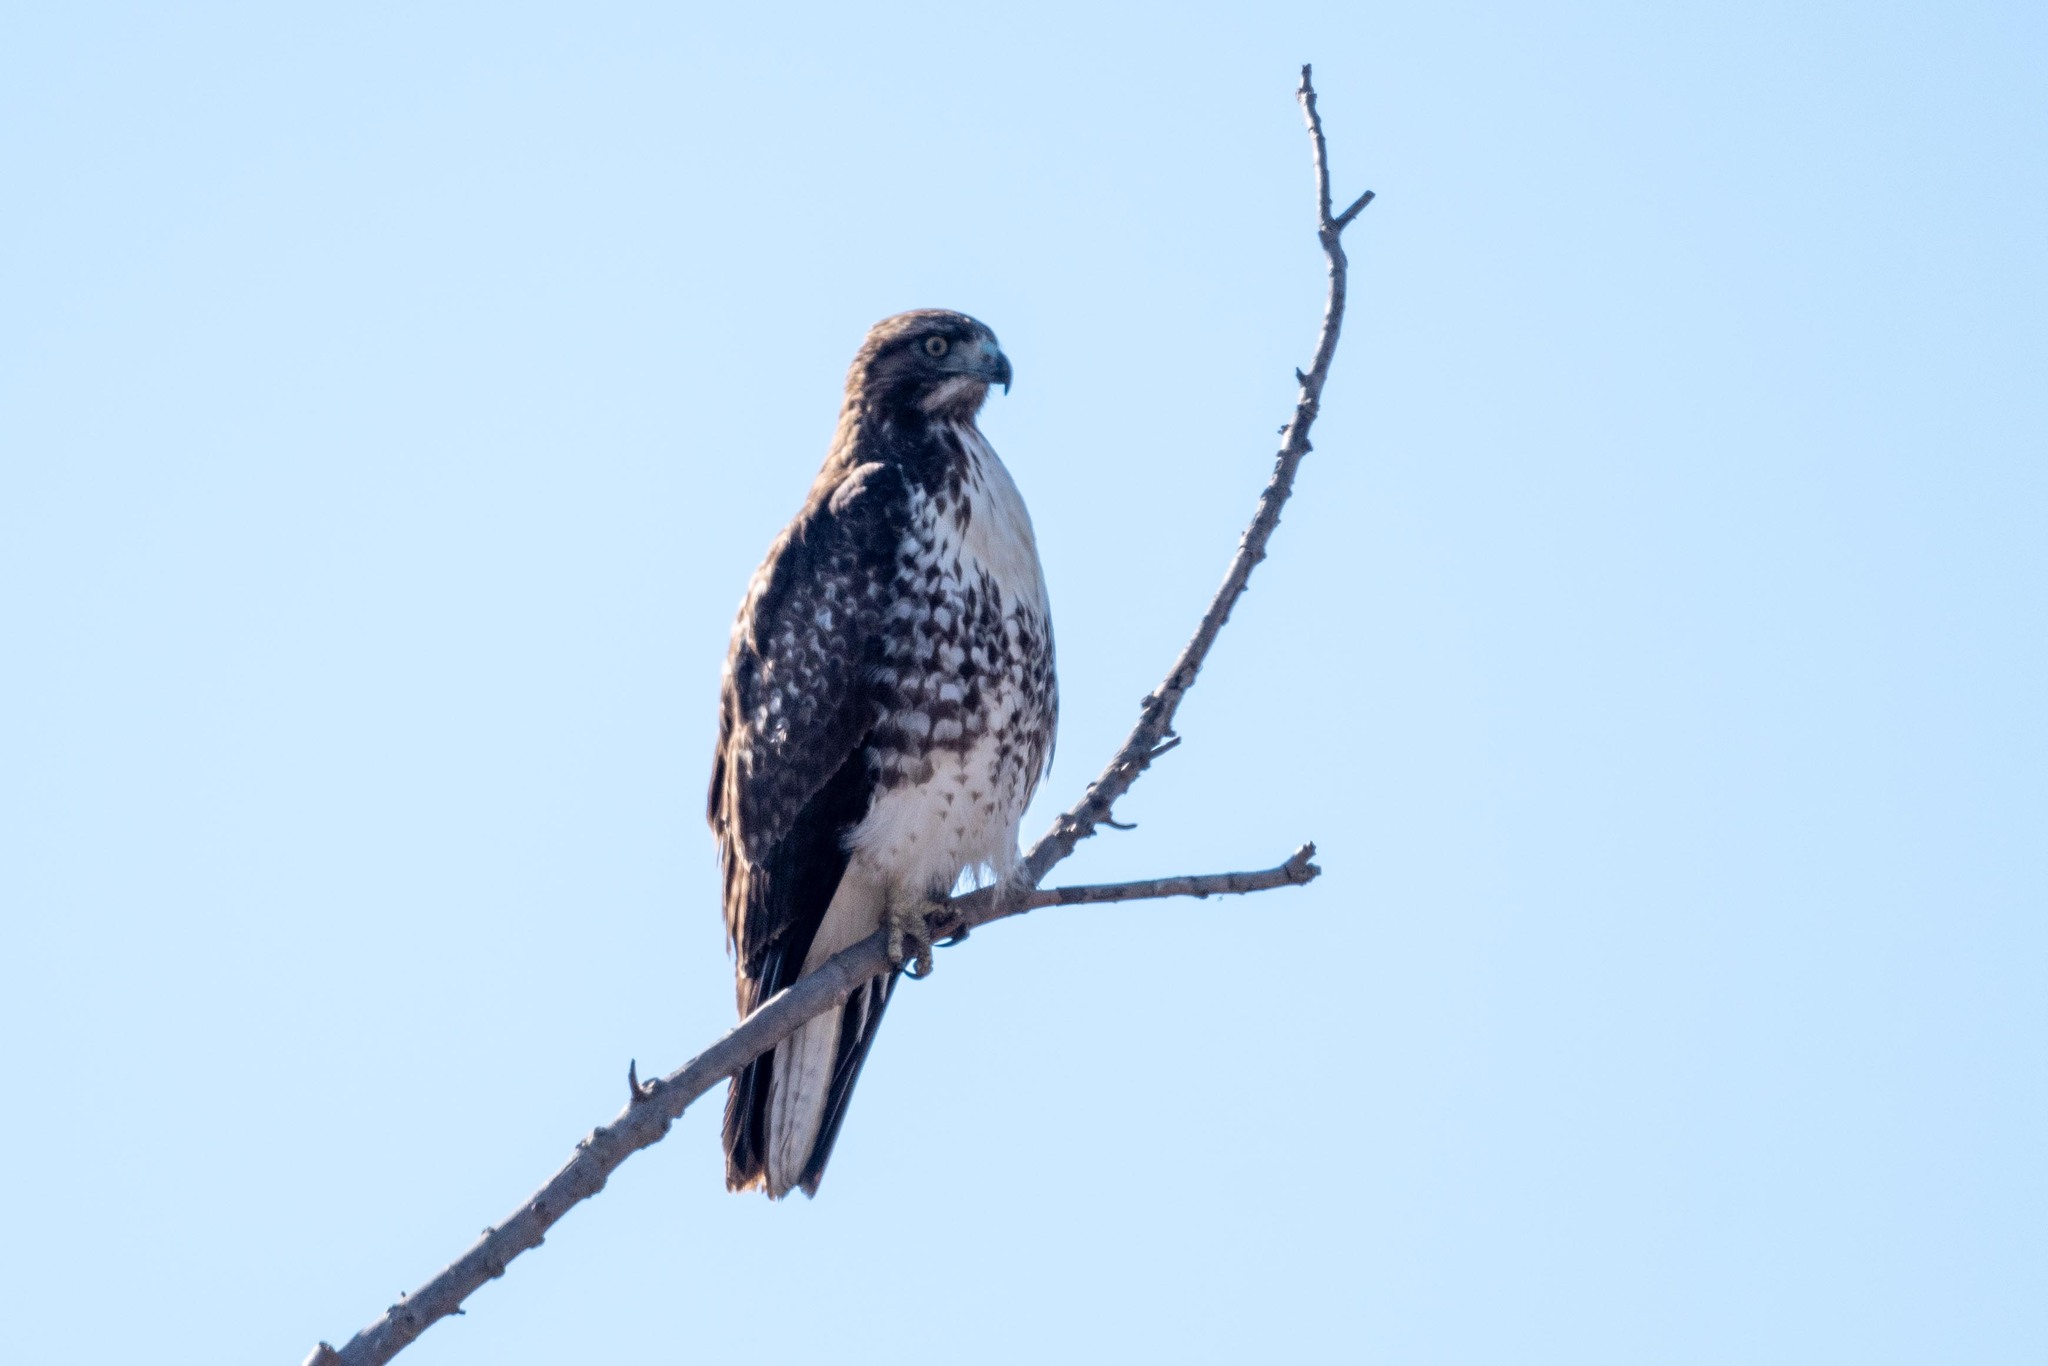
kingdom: Animalia
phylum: Chordata
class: Aves
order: Accipitriformes
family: Accipitridae
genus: Buteo
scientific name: Buteo jamaicensis
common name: Red-tailed hawk
